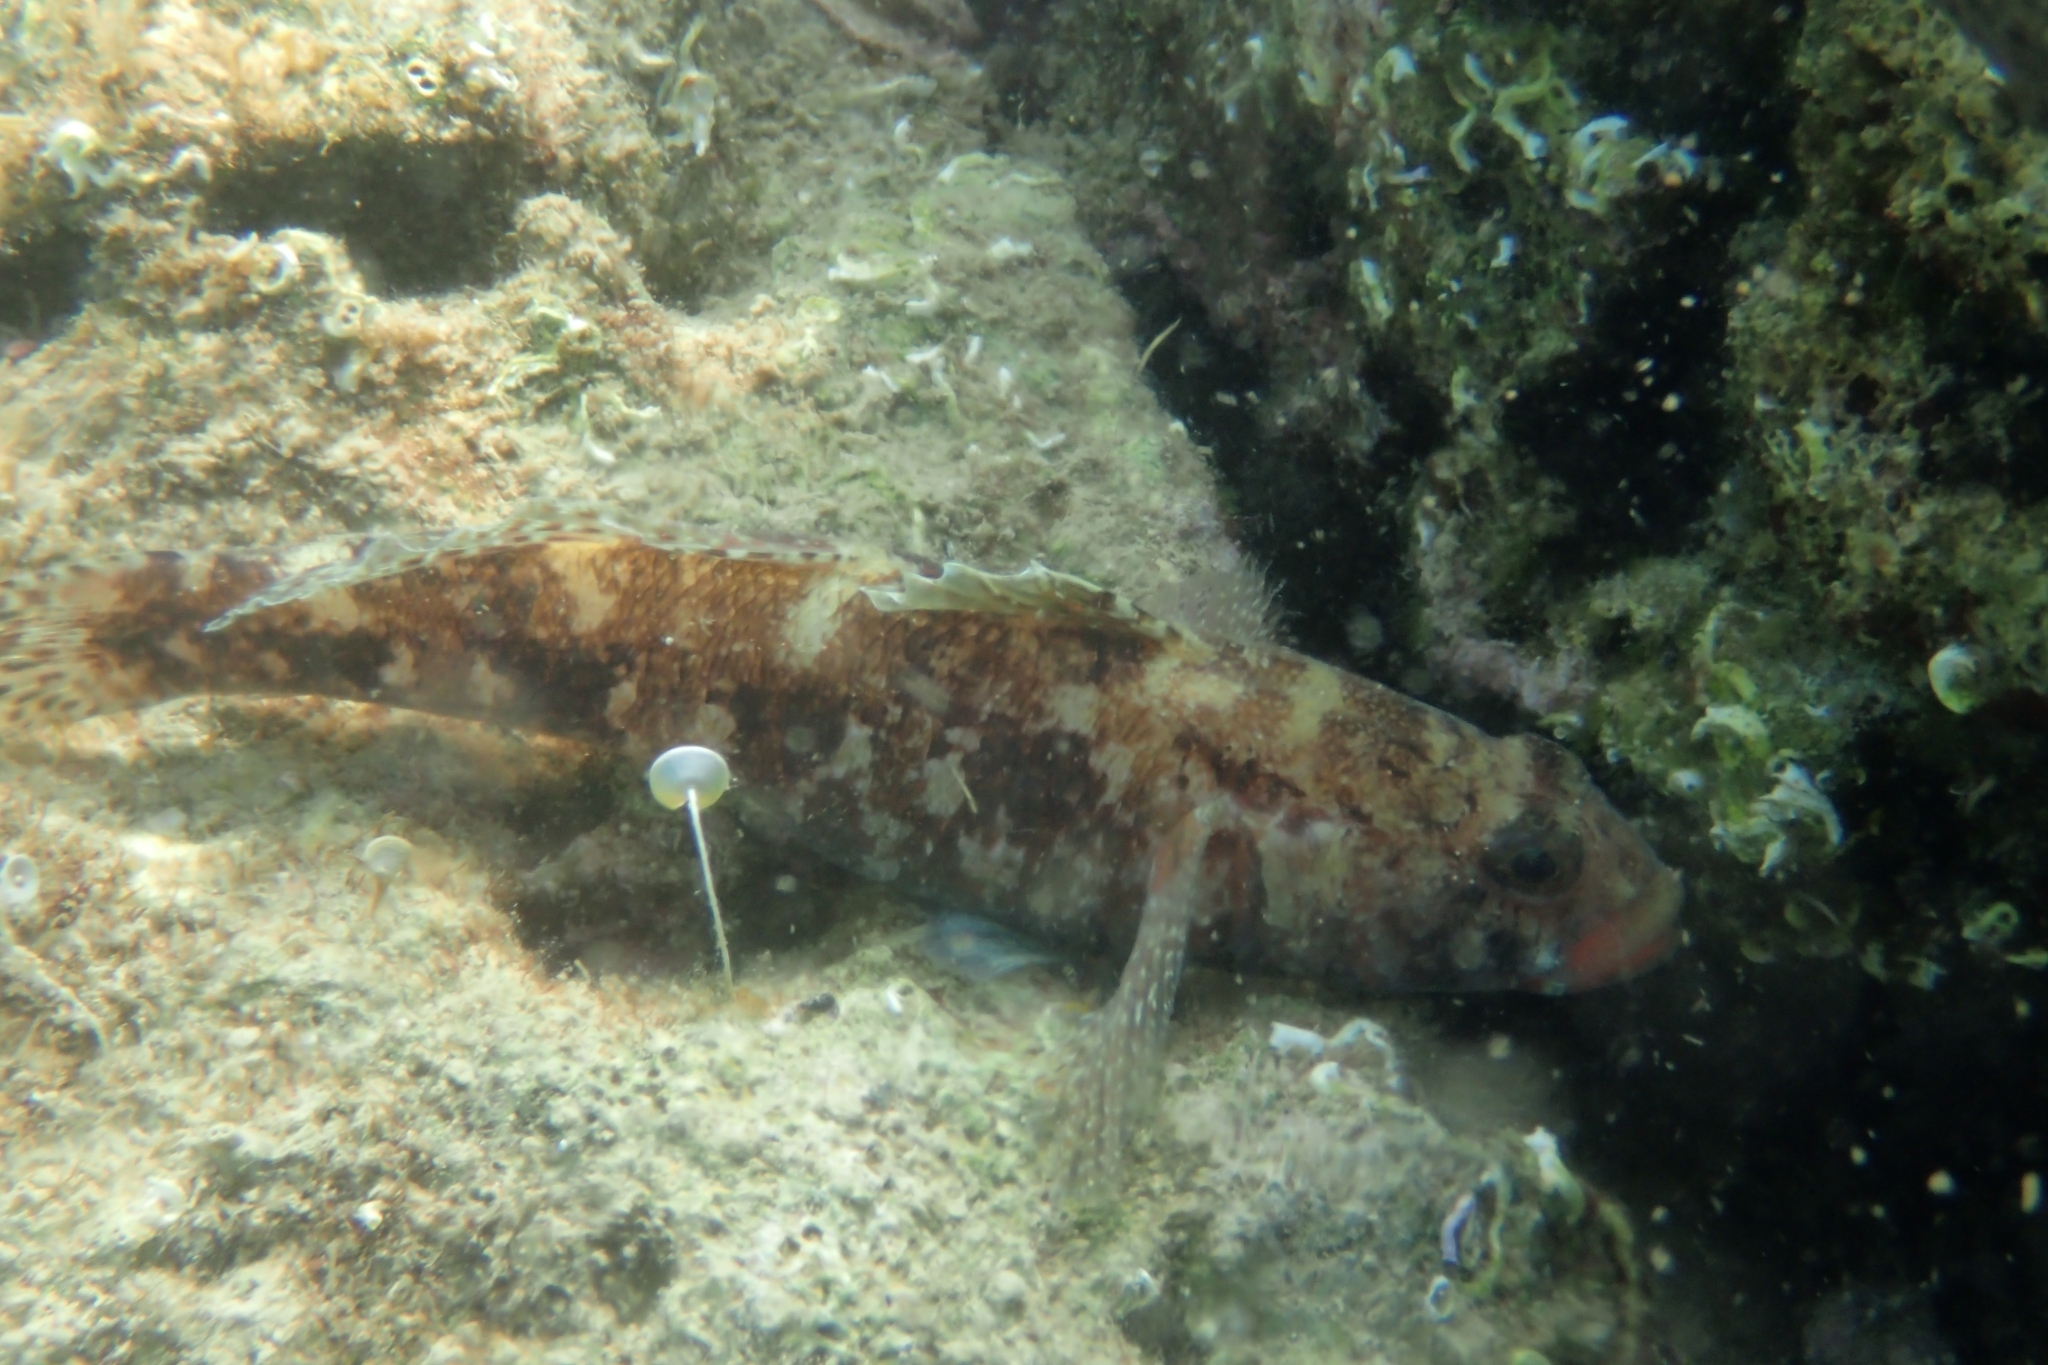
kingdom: Animalia
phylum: Chordata
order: Perciformes
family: Gobiidae
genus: Gobius
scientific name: Gobius cruentatus
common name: Red-mouthed goby
